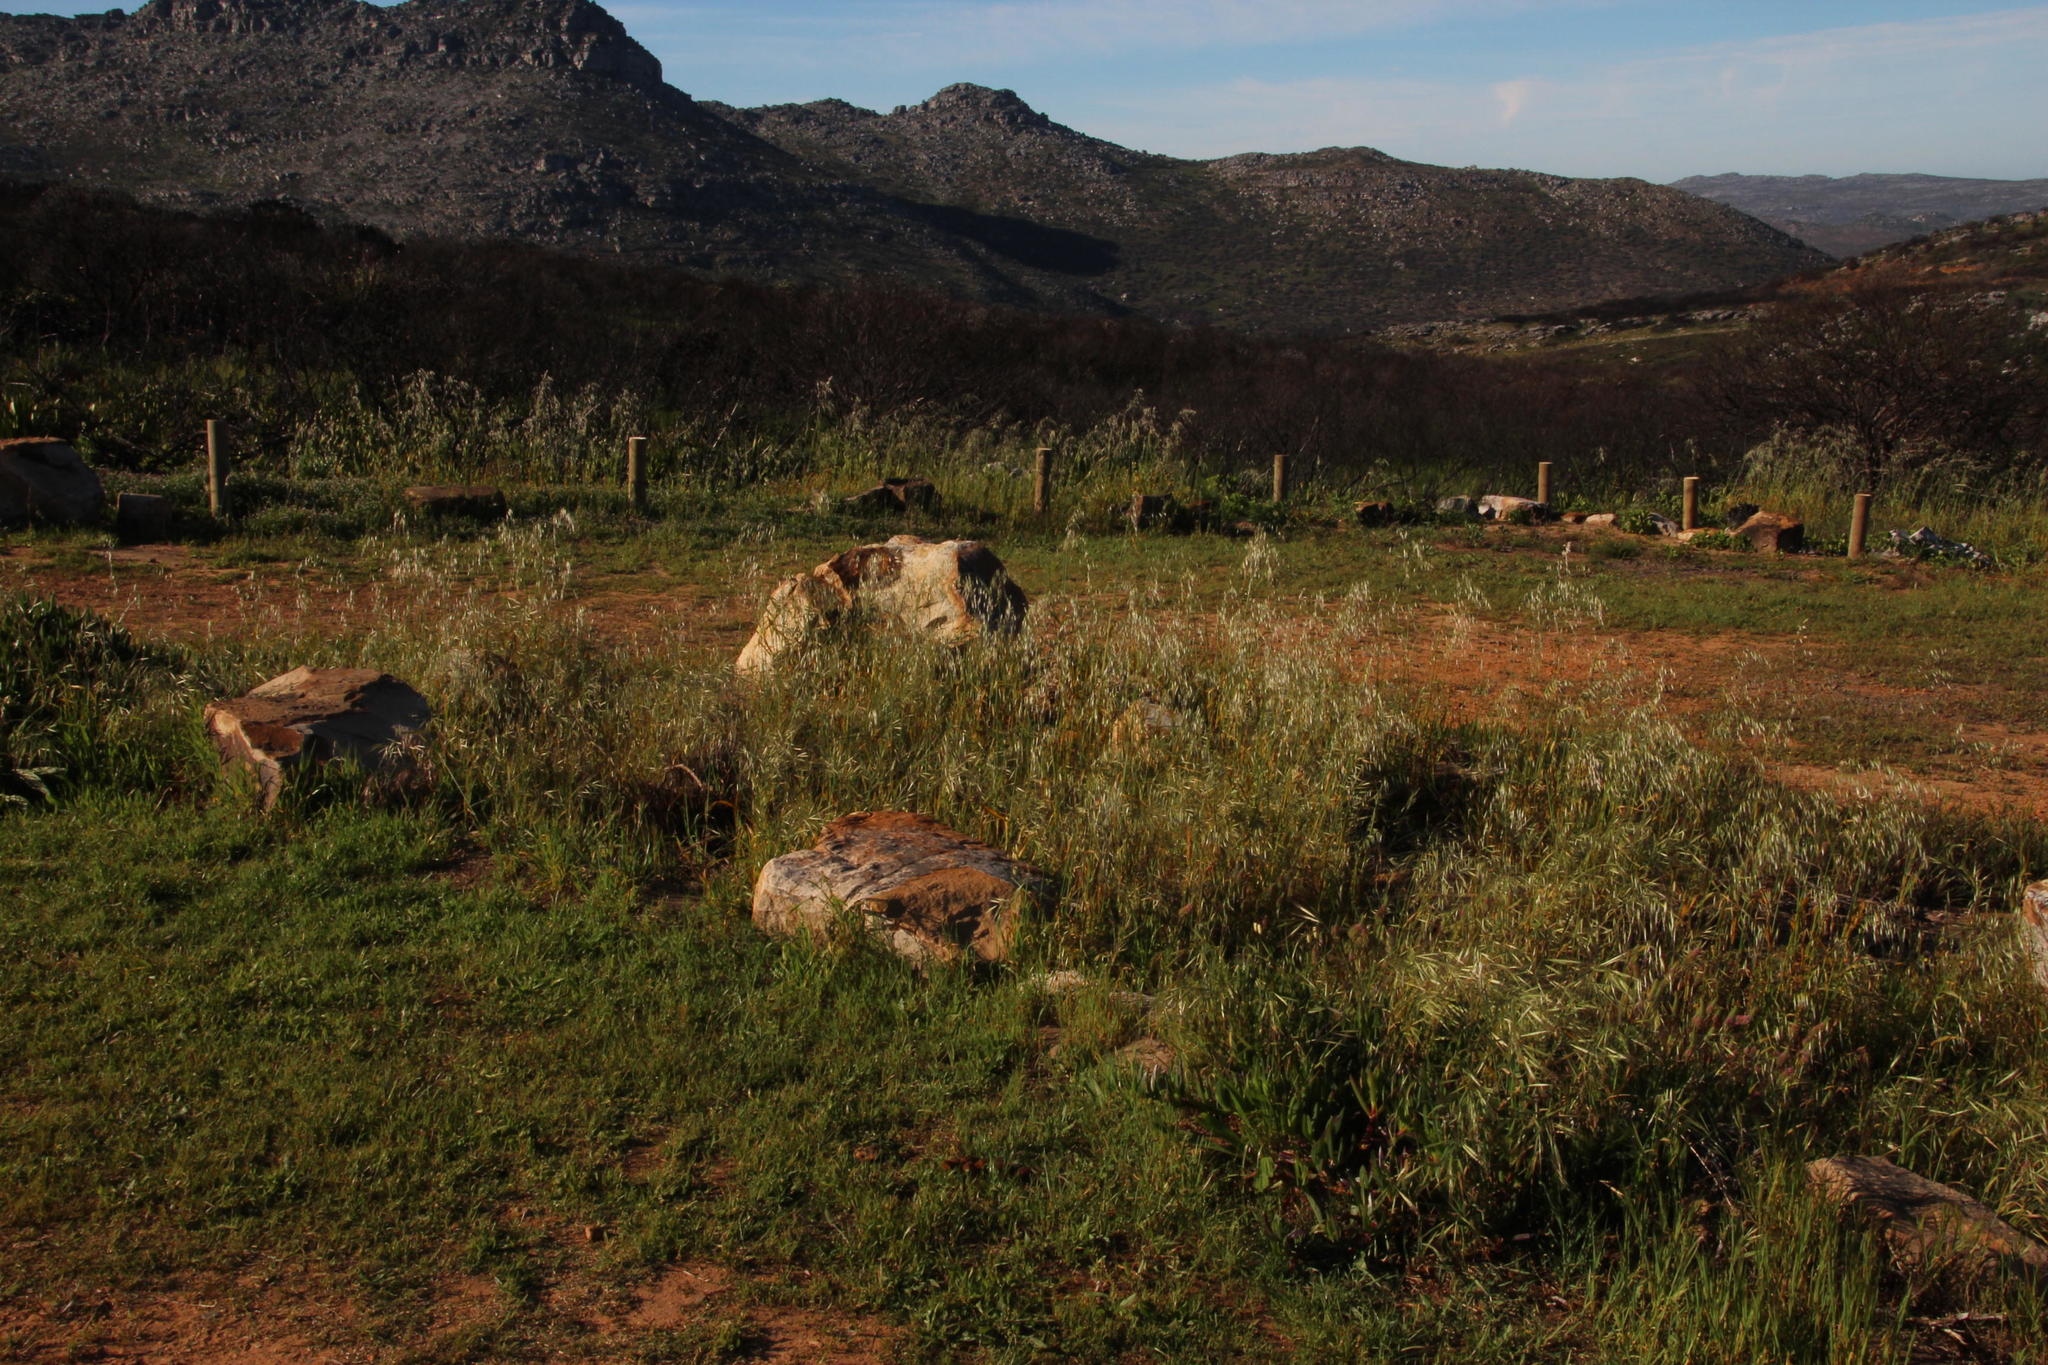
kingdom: Plantae
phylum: Tracheophyta
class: Liliopsida
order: Poales
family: Poaceae
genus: Avena
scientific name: Avena fatua
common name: Wild oat
